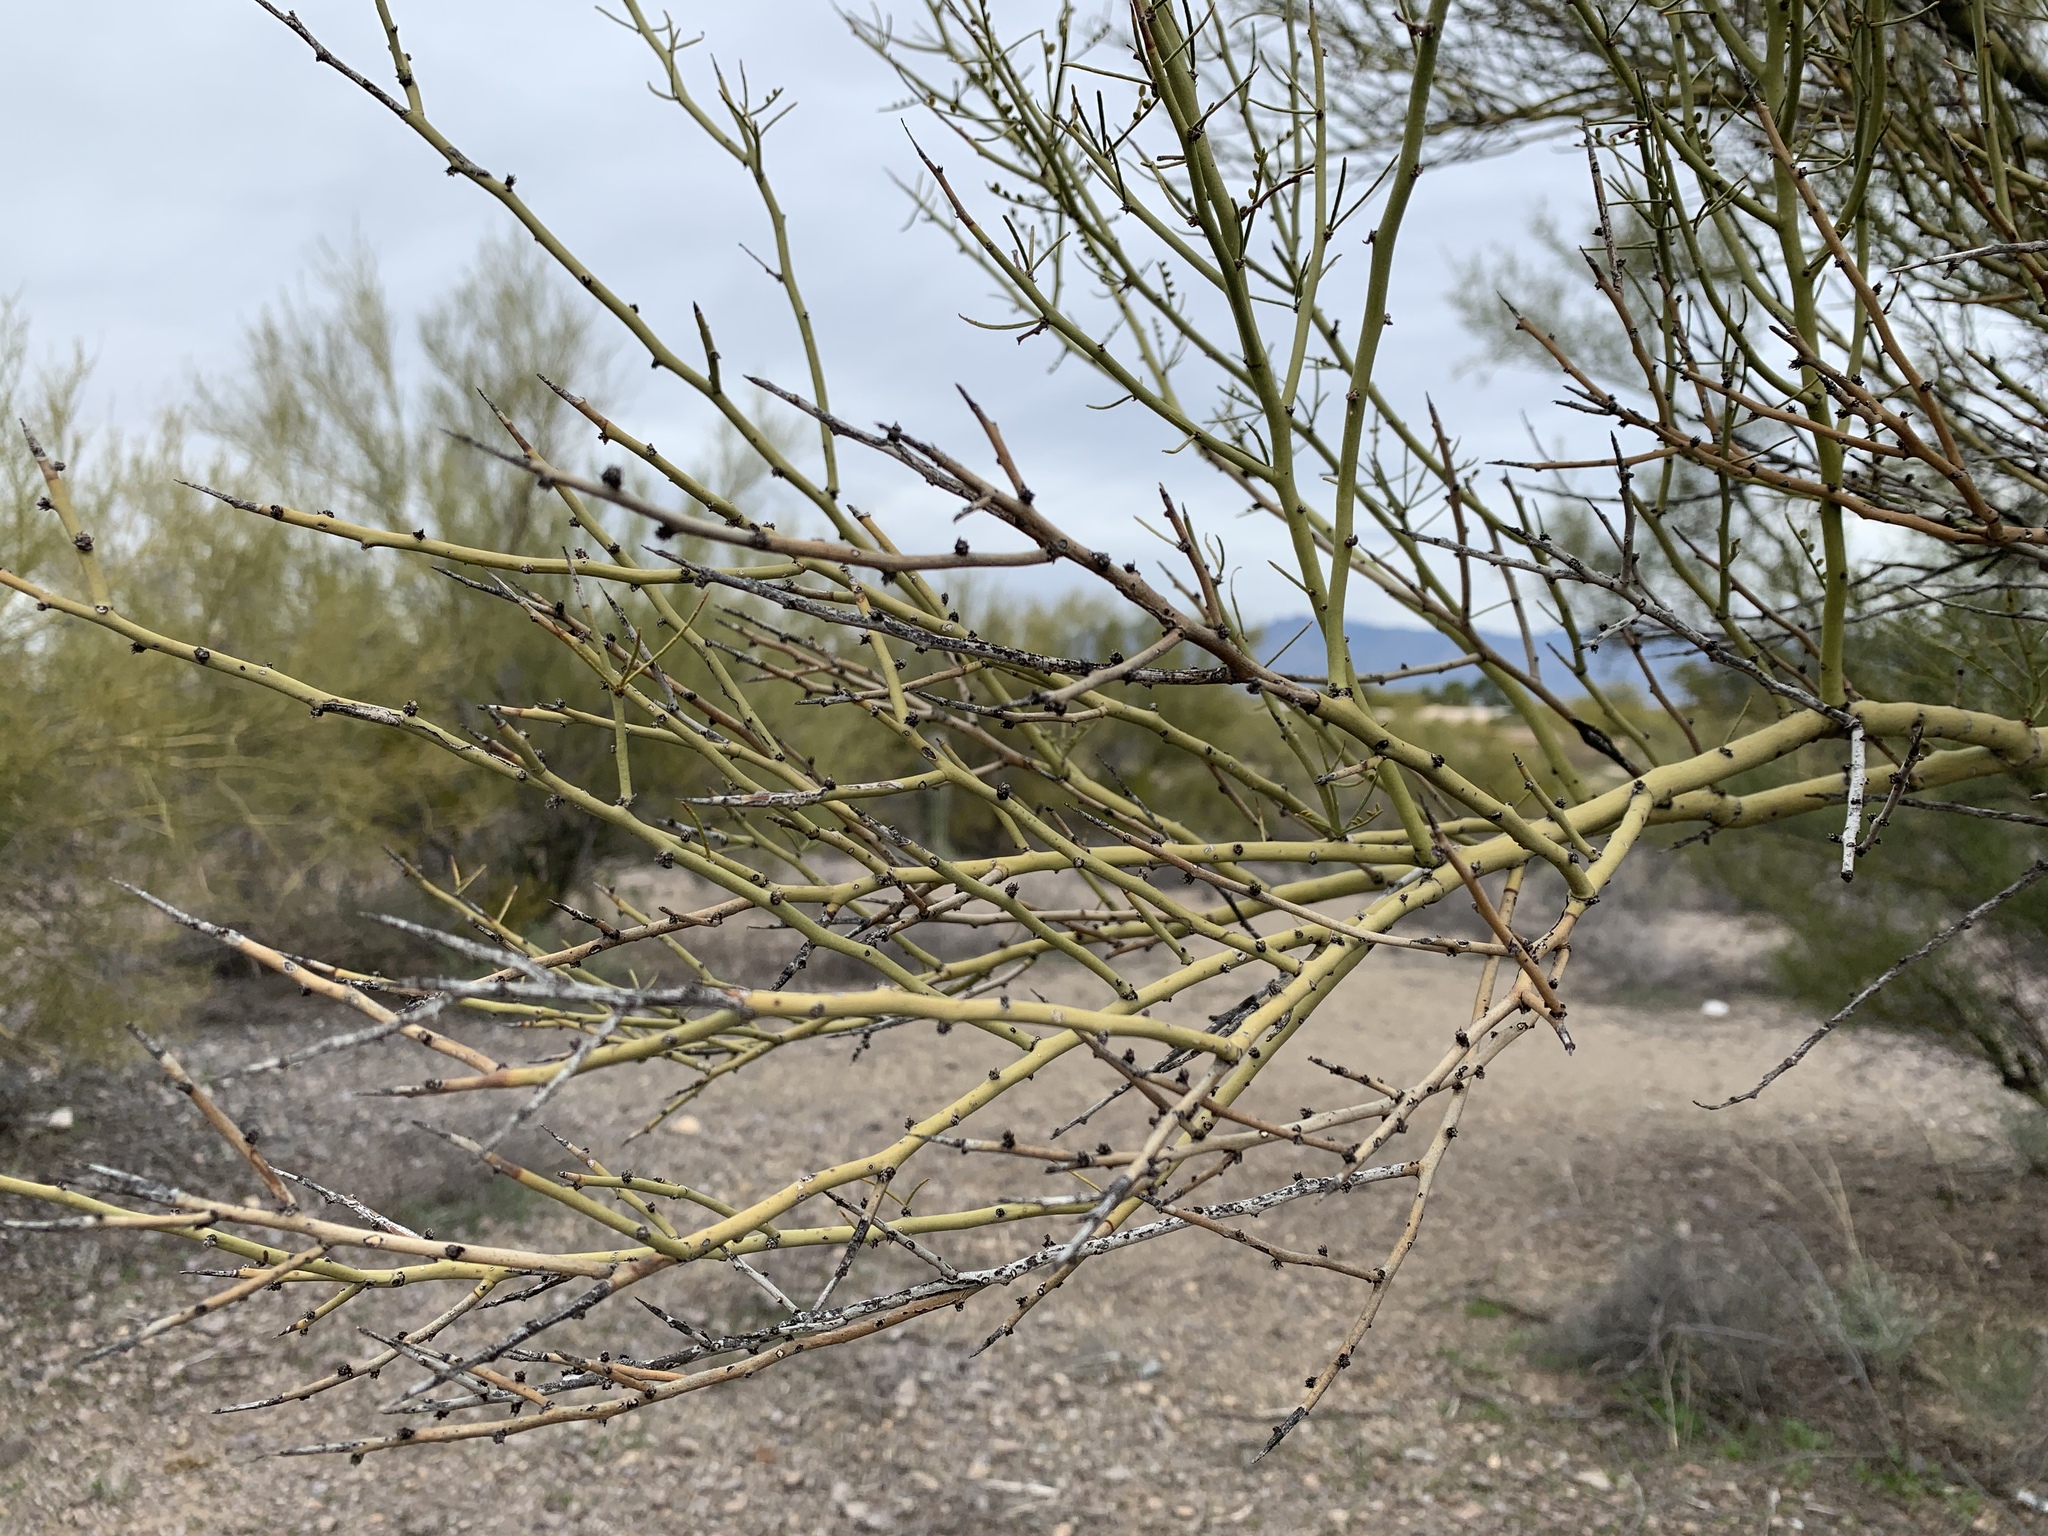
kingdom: Plantae
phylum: Tracheophyta
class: Magnoliopsida
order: Fabales
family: Fabaceae
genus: Parkinsonia
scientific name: Parkinsonia microphylla
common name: Yellow paloverde
